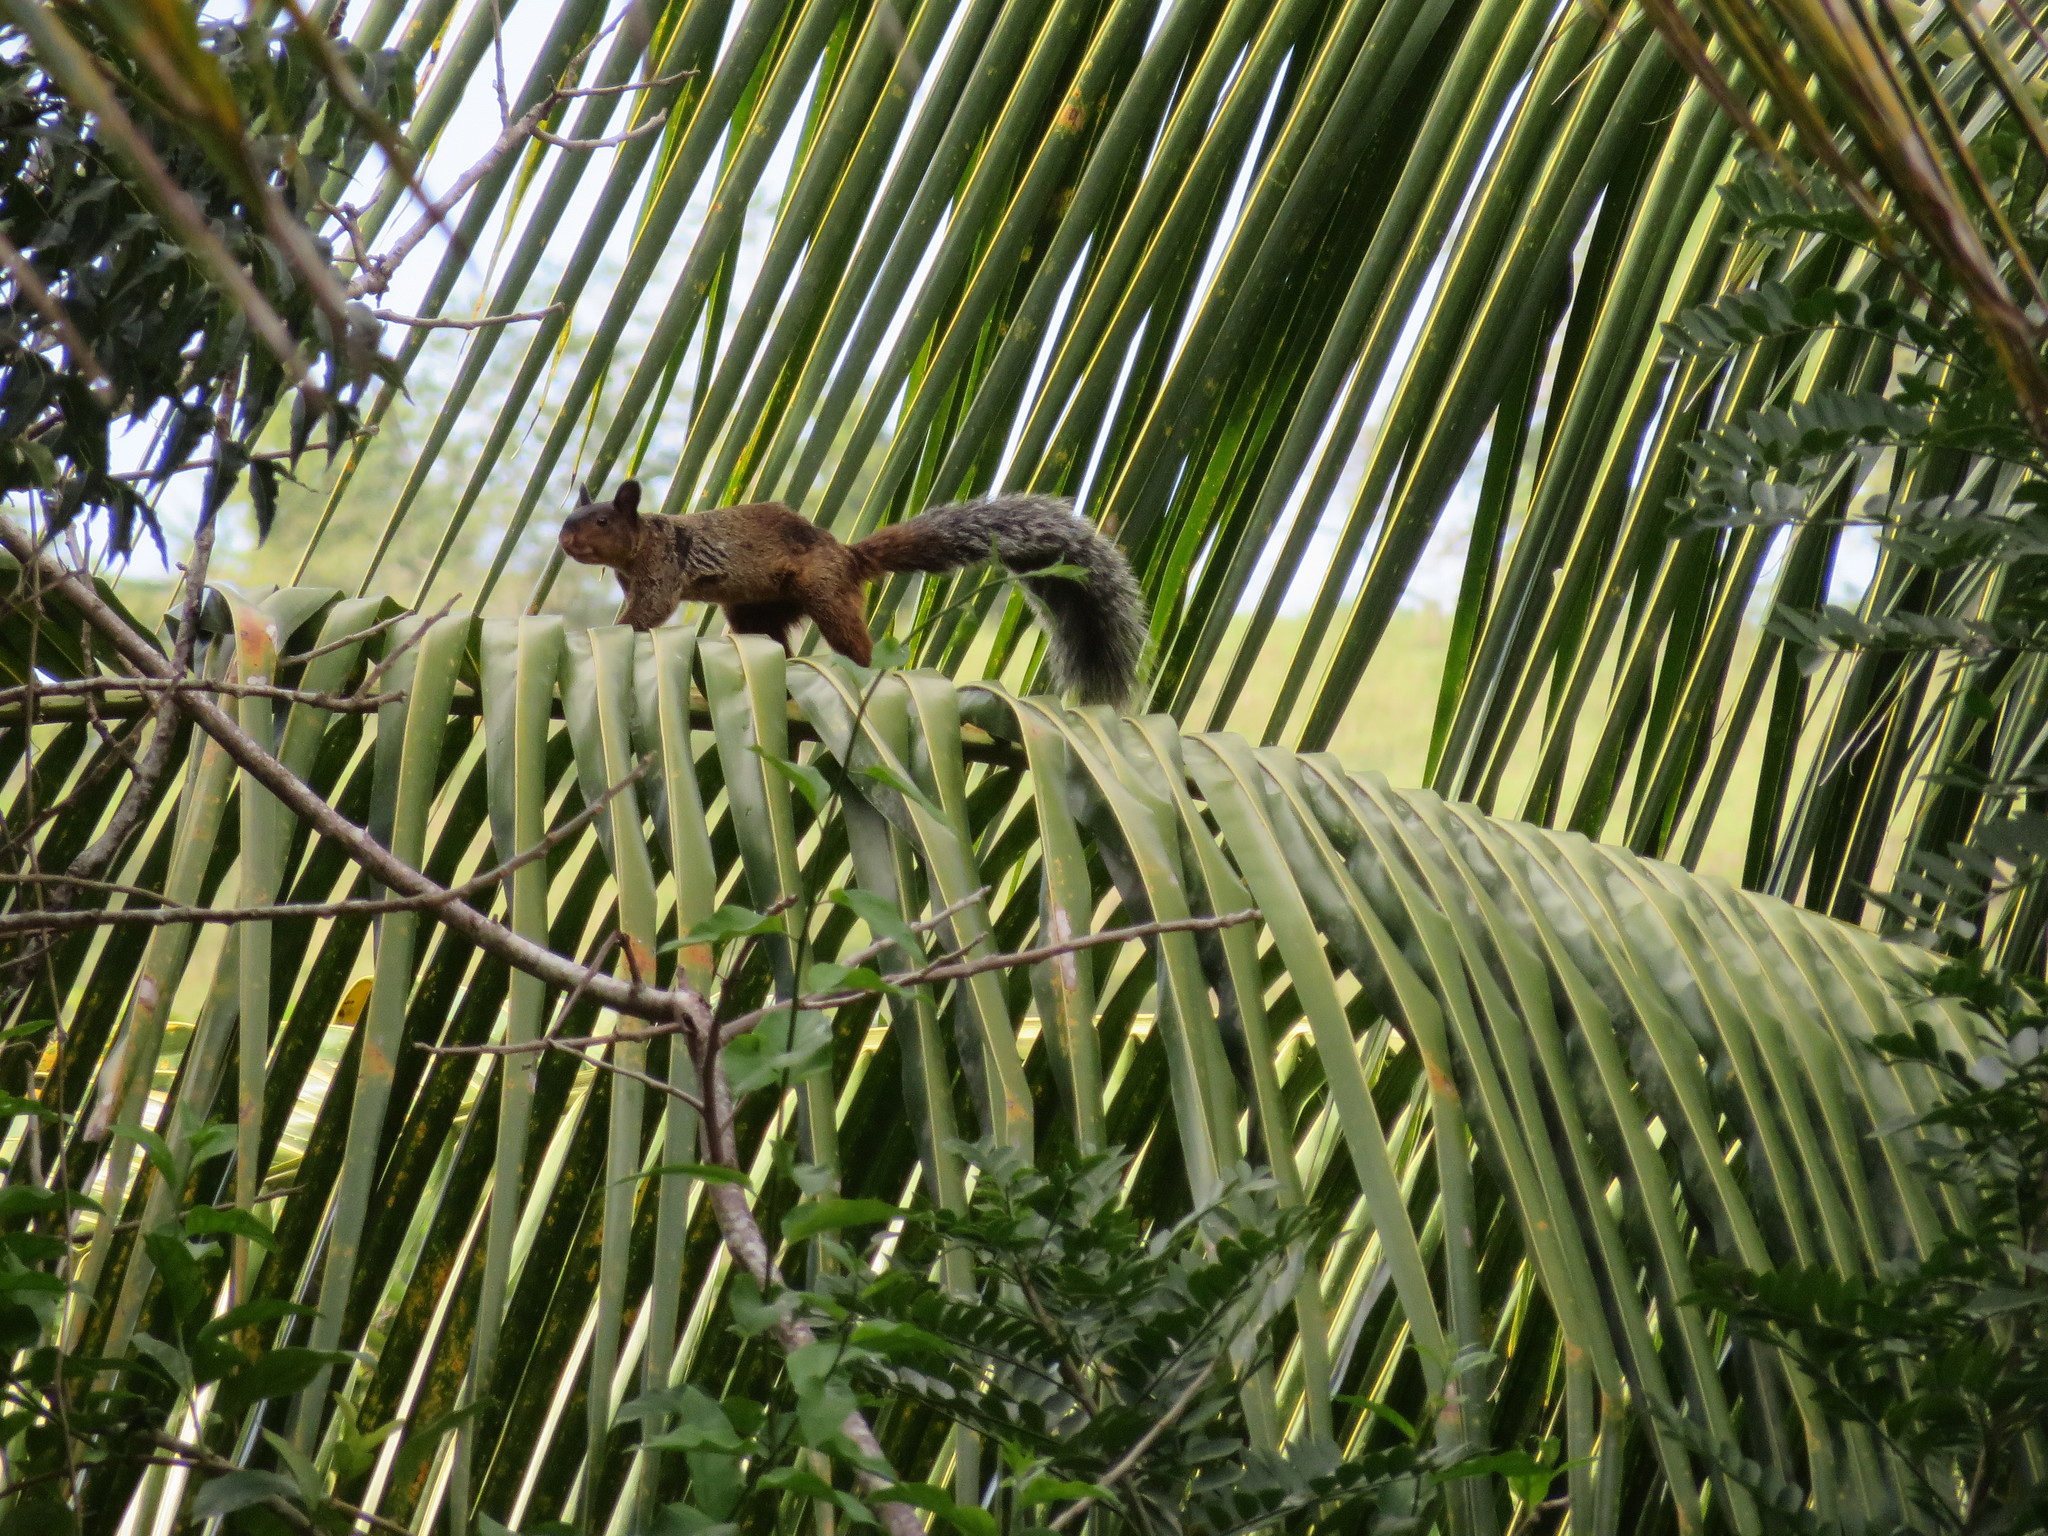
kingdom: Animalia
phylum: Chordata
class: Mammalia
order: Rodentia
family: Sciuridae
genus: Sciurus
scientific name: Sciurus stramineus
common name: Guayaquil squirrel
